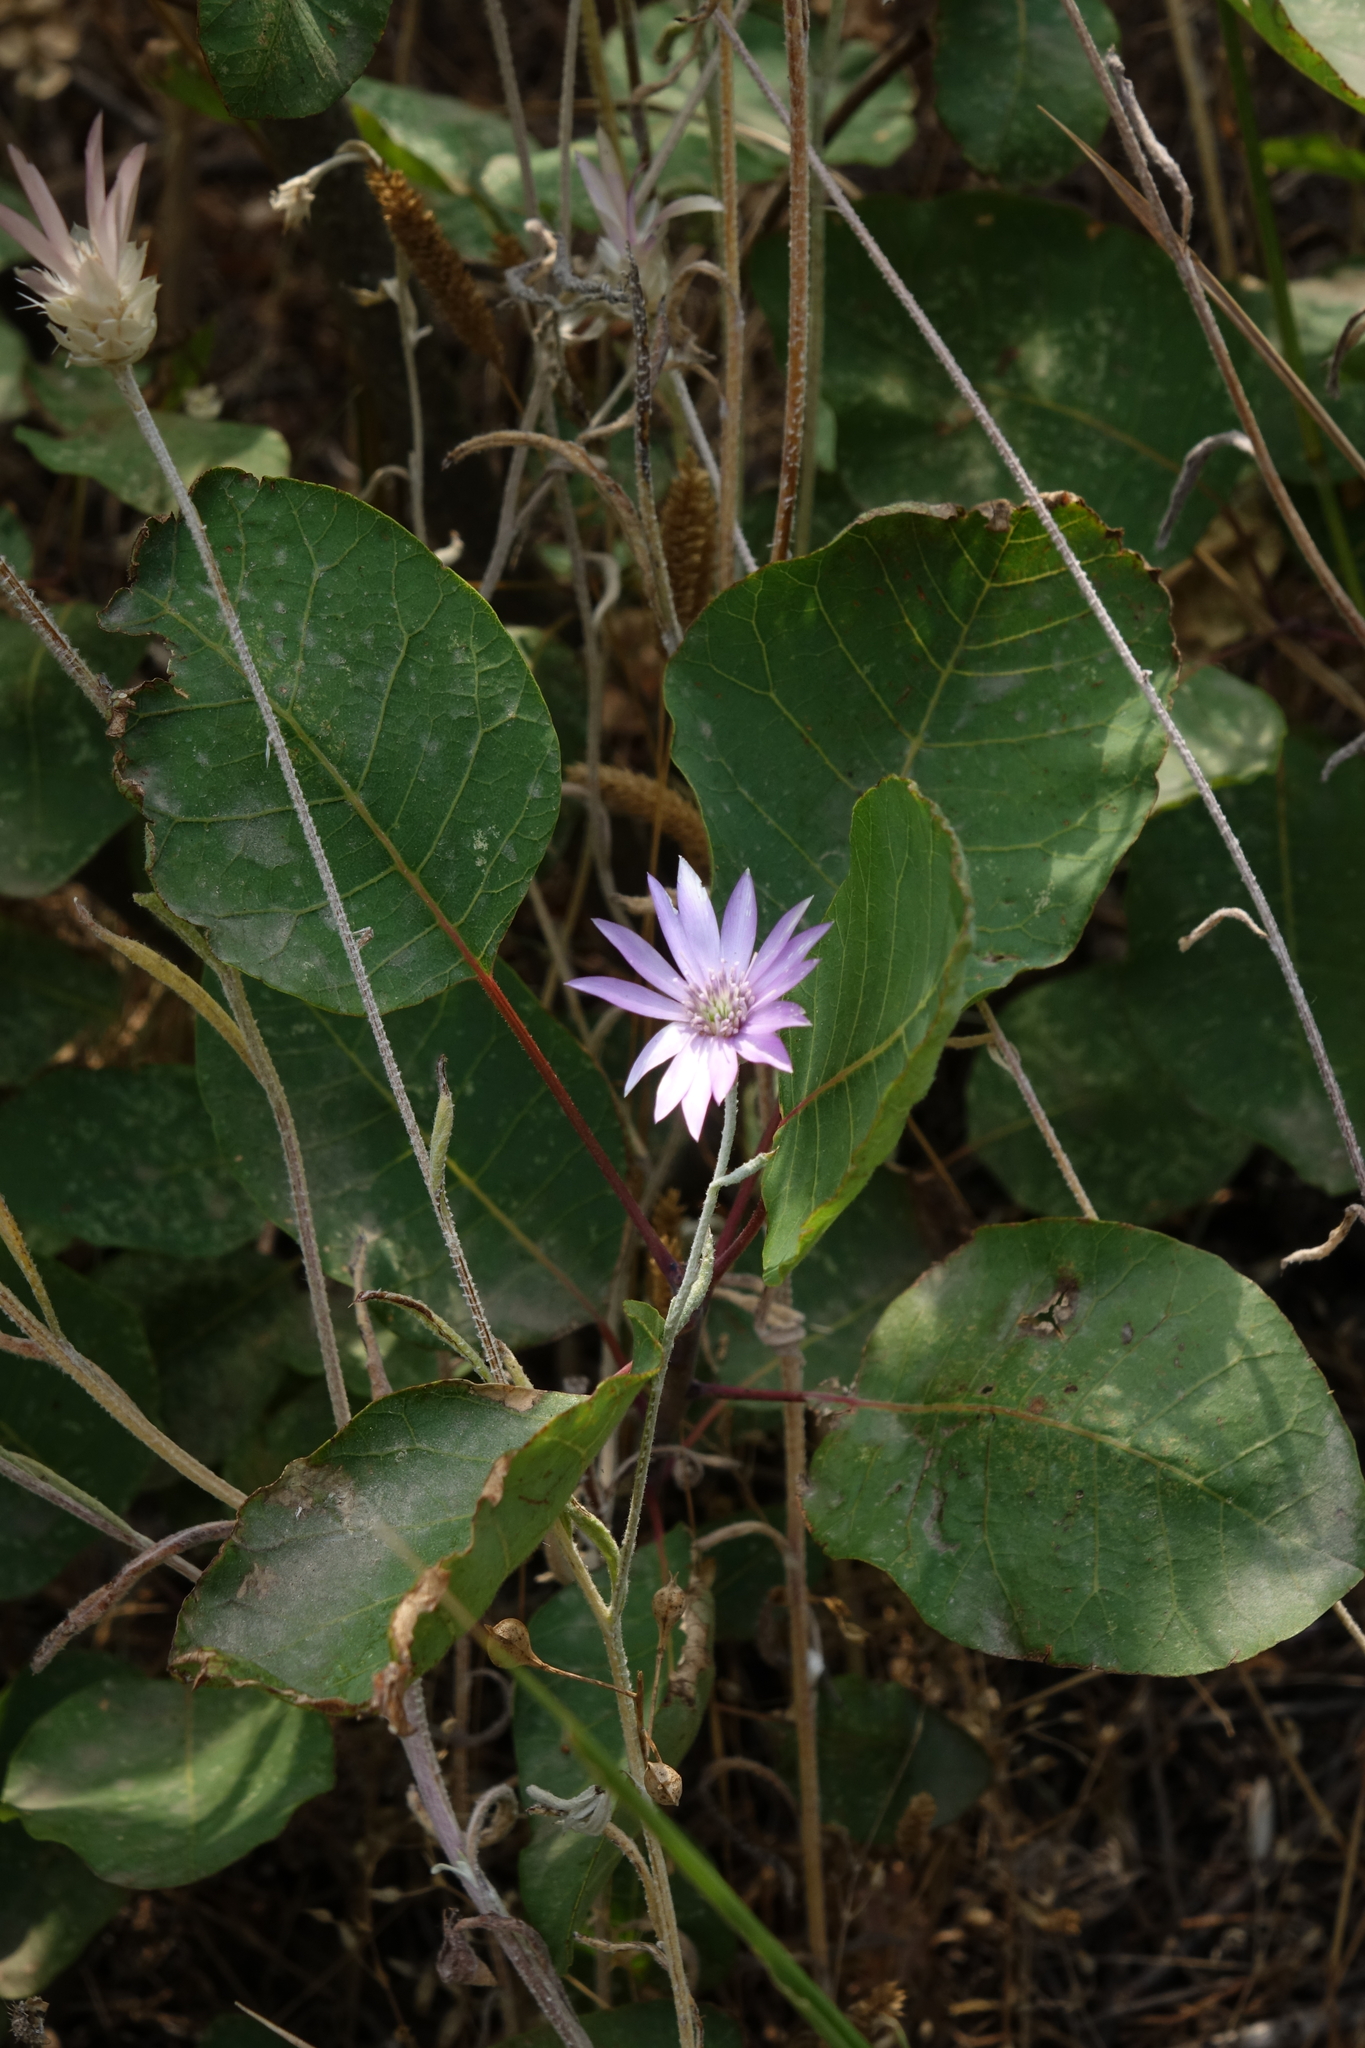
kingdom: Plantae
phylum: Tracheophyta
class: Magnoliopsida
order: Asterales
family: Asteraceae
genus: Xeranthemum
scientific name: Xeranthemum annuum
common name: Immortelle
